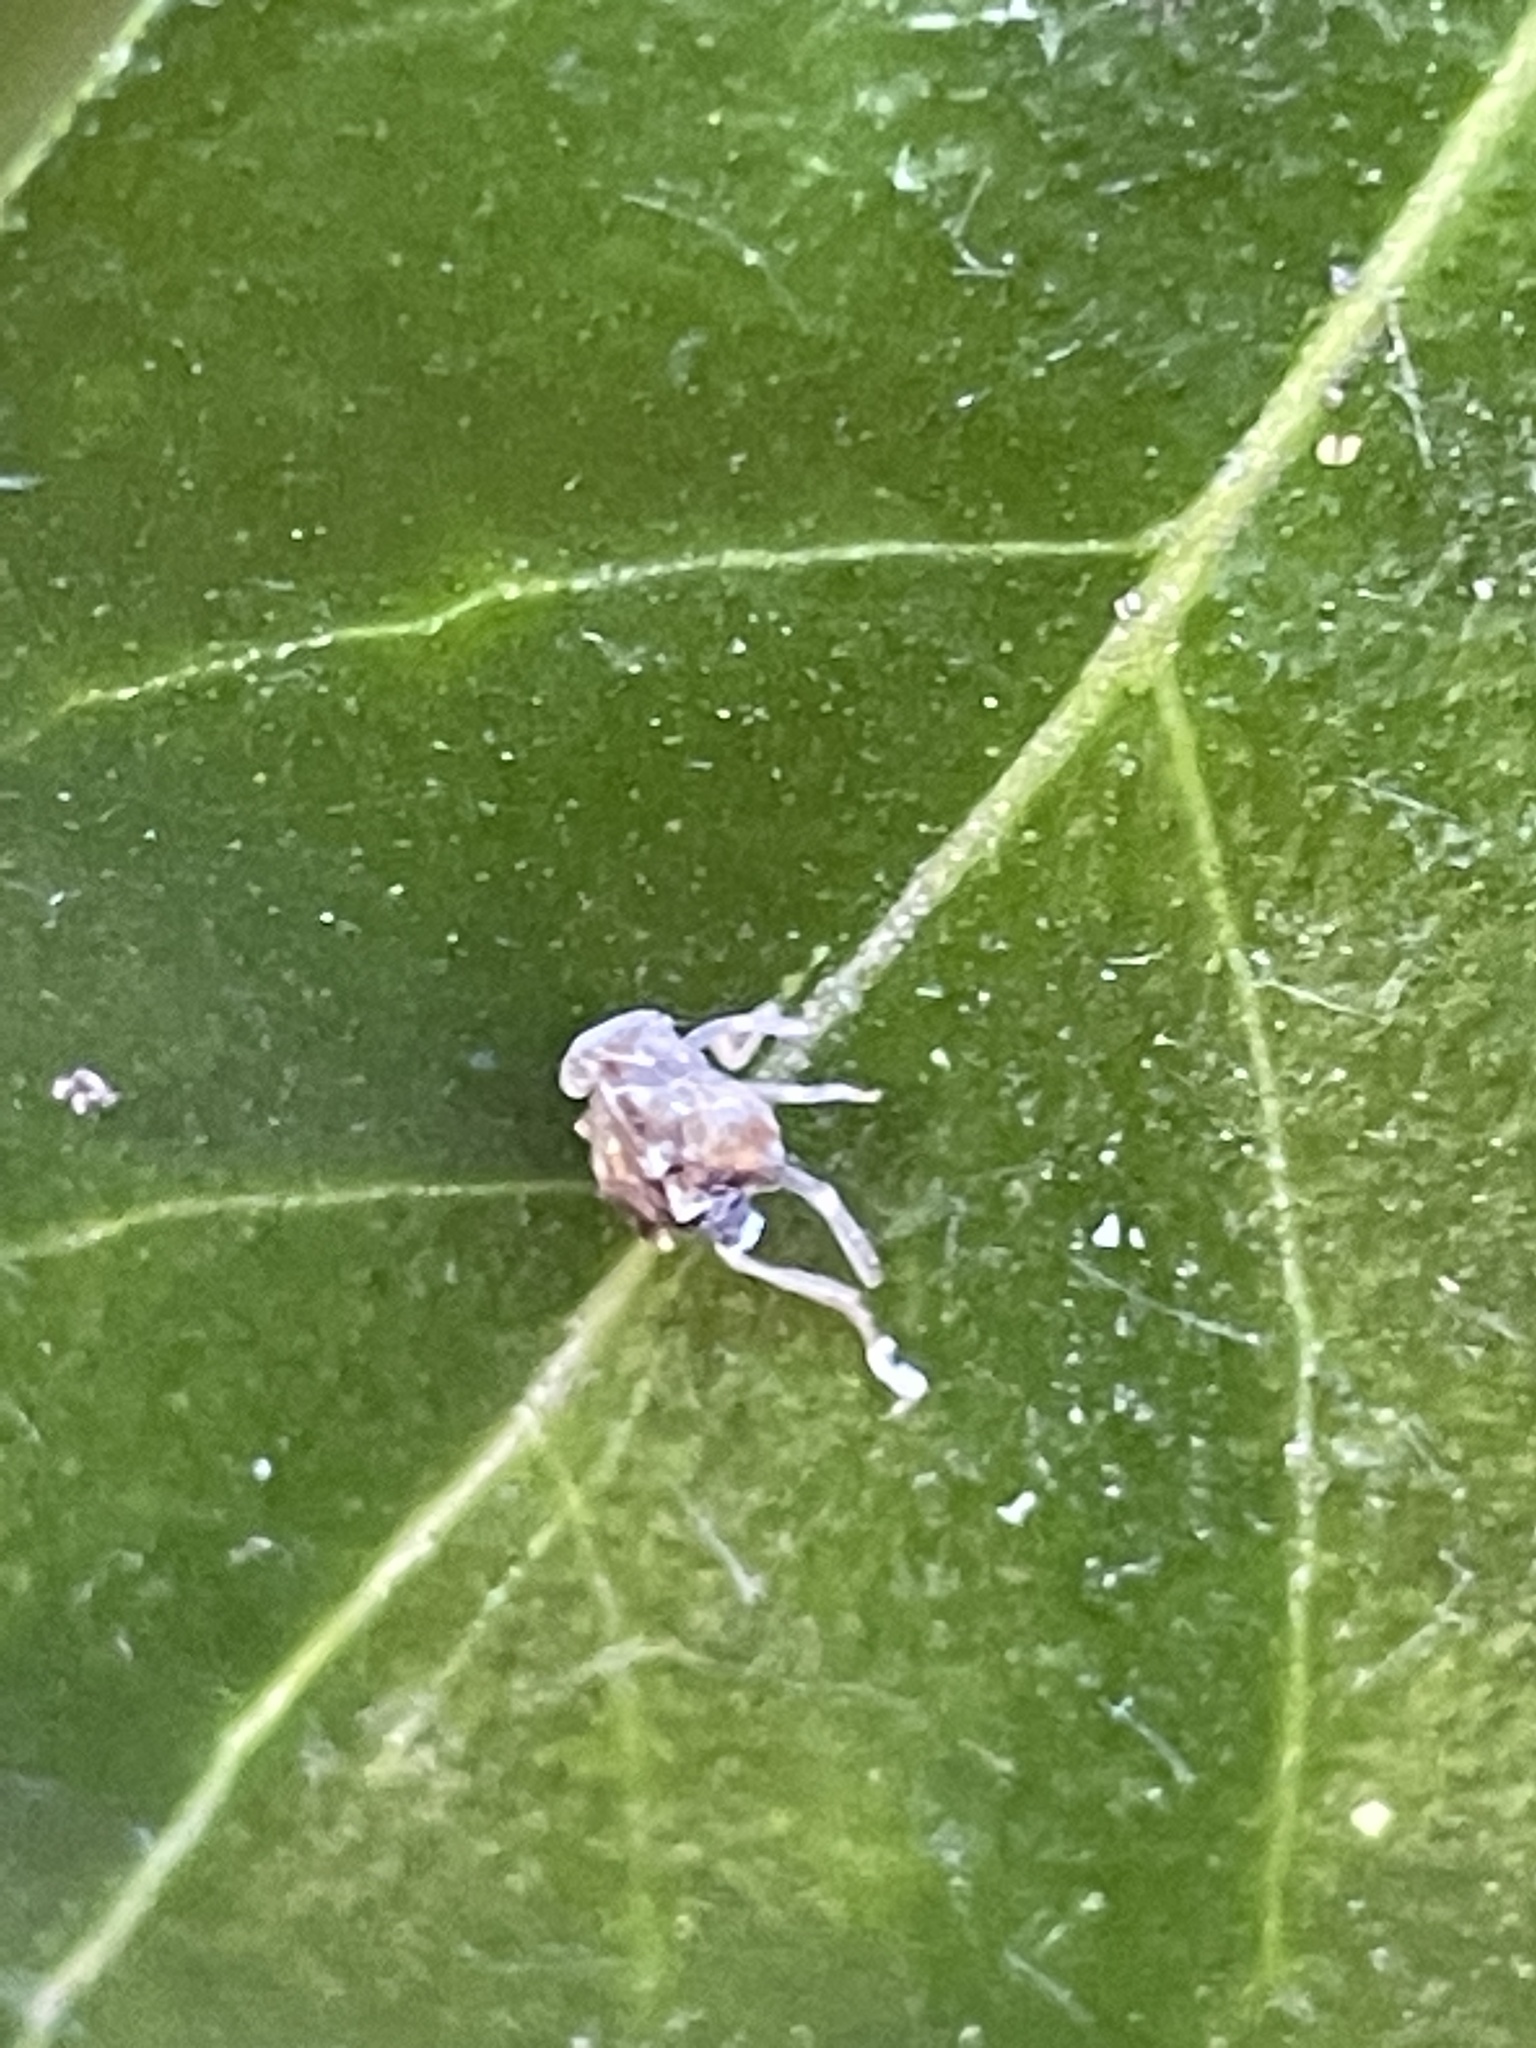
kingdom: Animalia
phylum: Arthropoda
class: Insecta
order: Hemiptera
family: Ricaniidae
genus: Scolypopa
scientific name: Scolypopa australis
